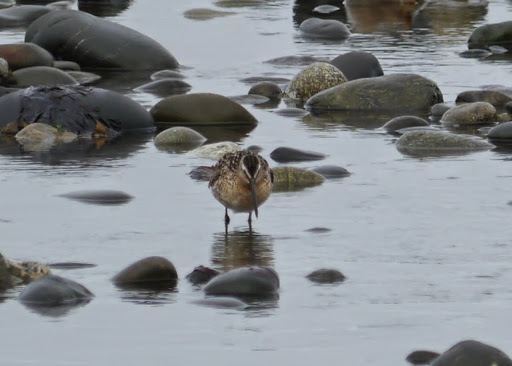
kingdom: Animalia
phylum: Chordata
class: Aves
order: Charadriiformes
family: Scolopacidae
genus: Limnodromus
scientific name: Limnodromus griseus
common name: Short-billed dowitcher
